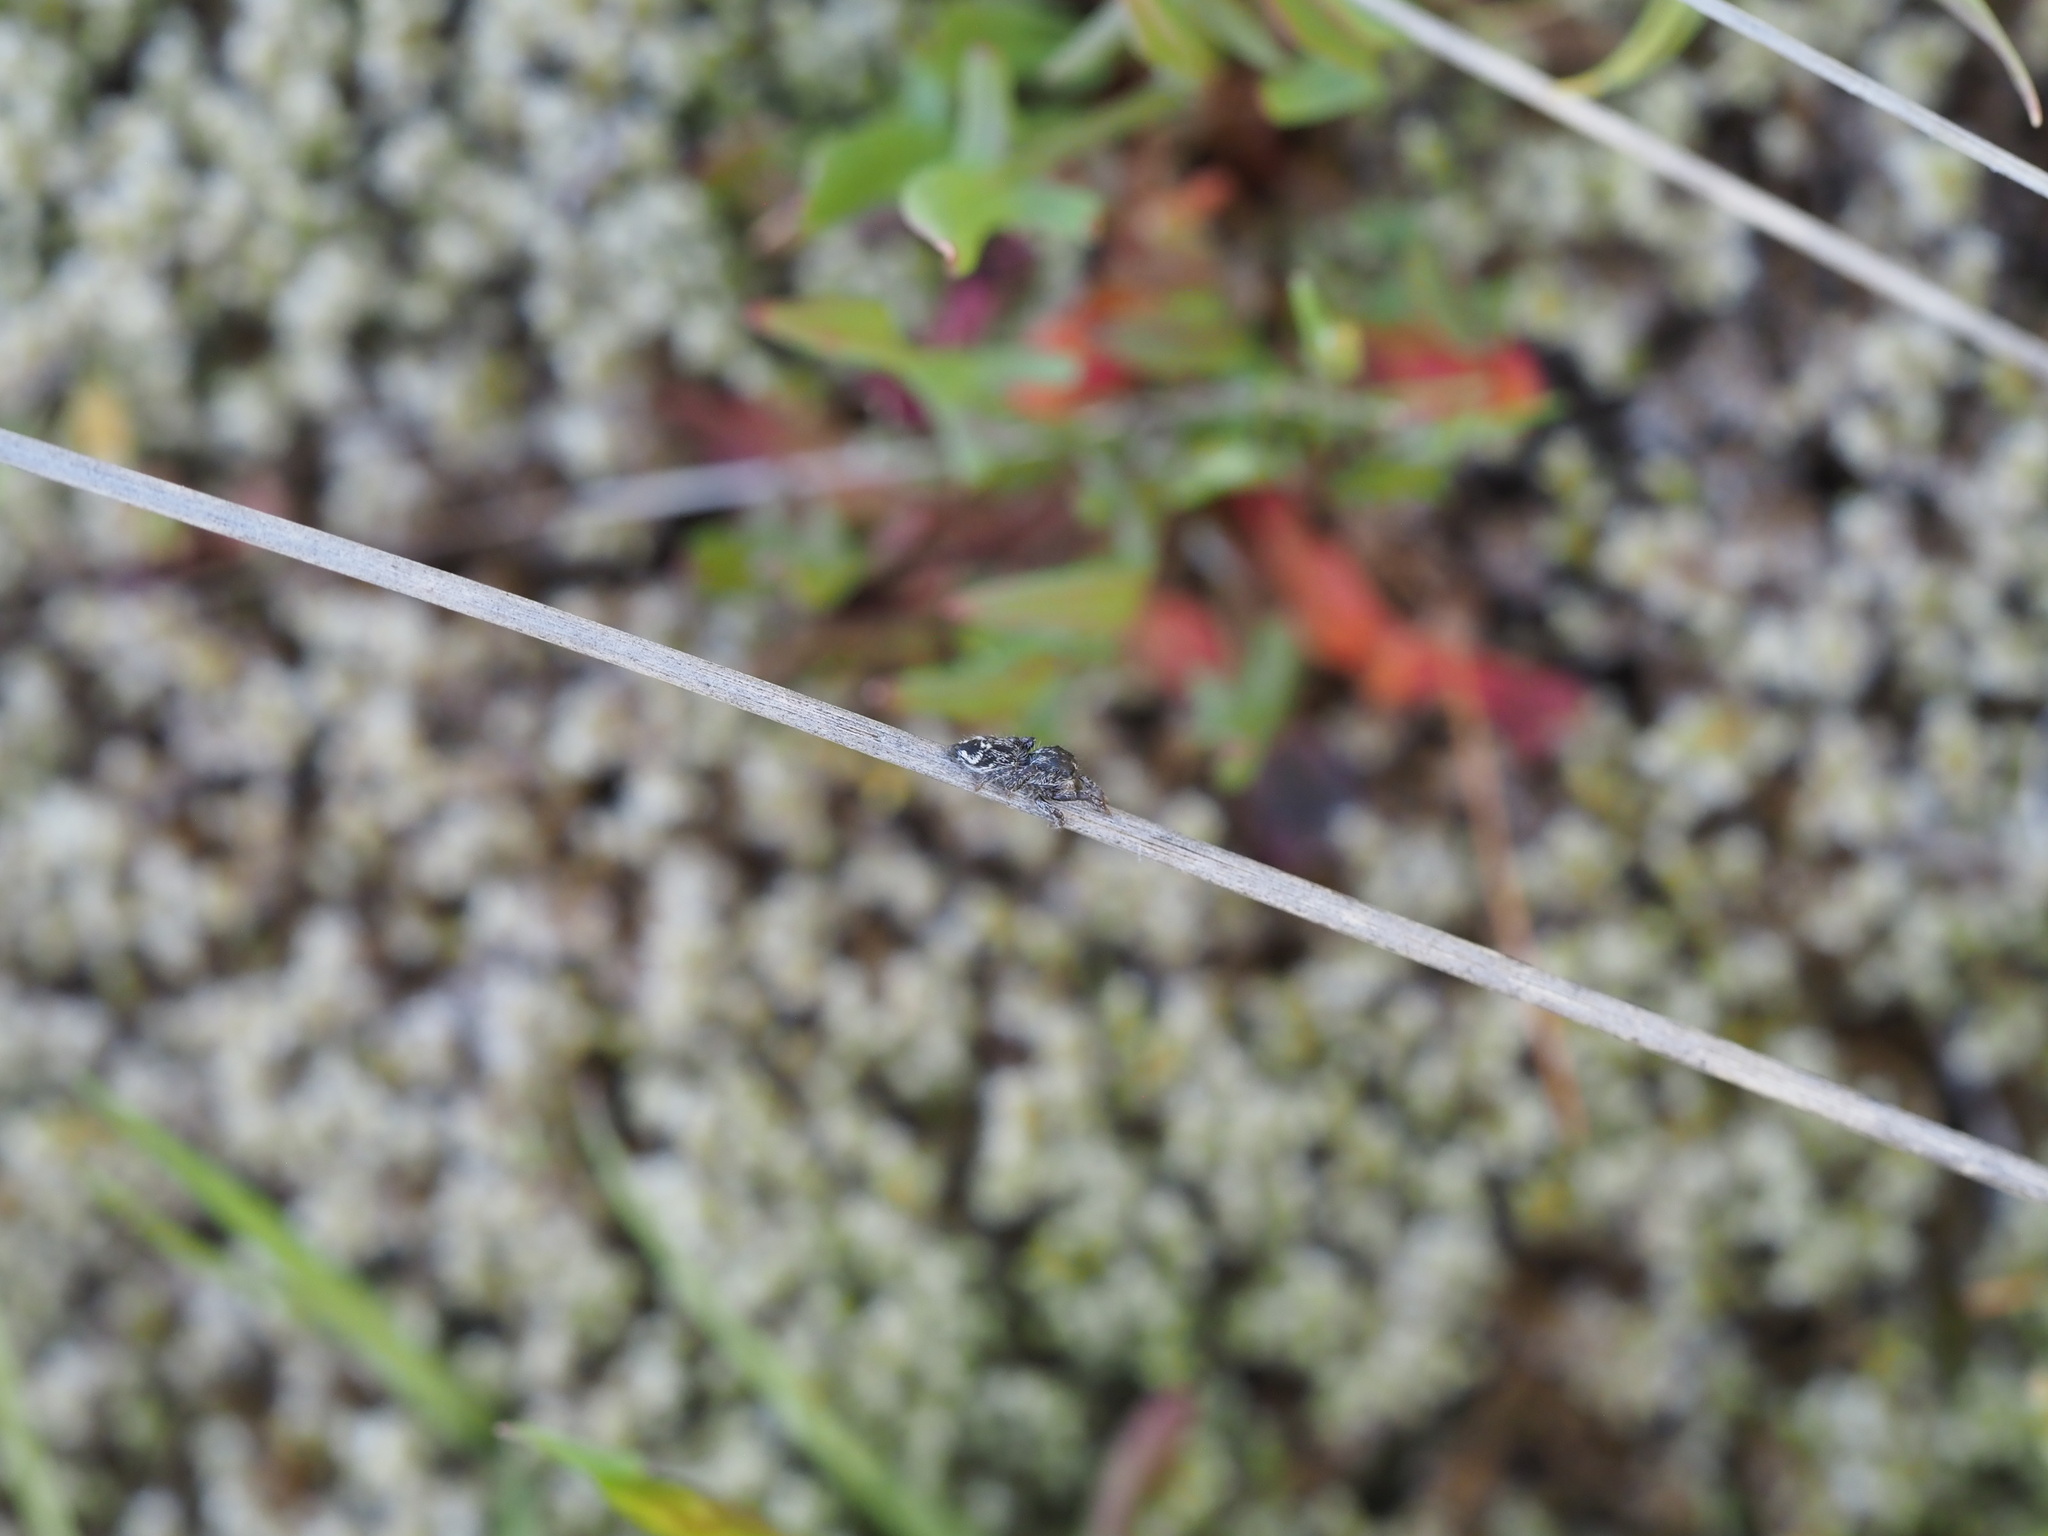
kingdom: Animalia
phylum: Arthropoda
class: Arachnida
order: Araneae
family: Salticidae
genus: Habronattus
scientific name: Habronattus hirsutus
